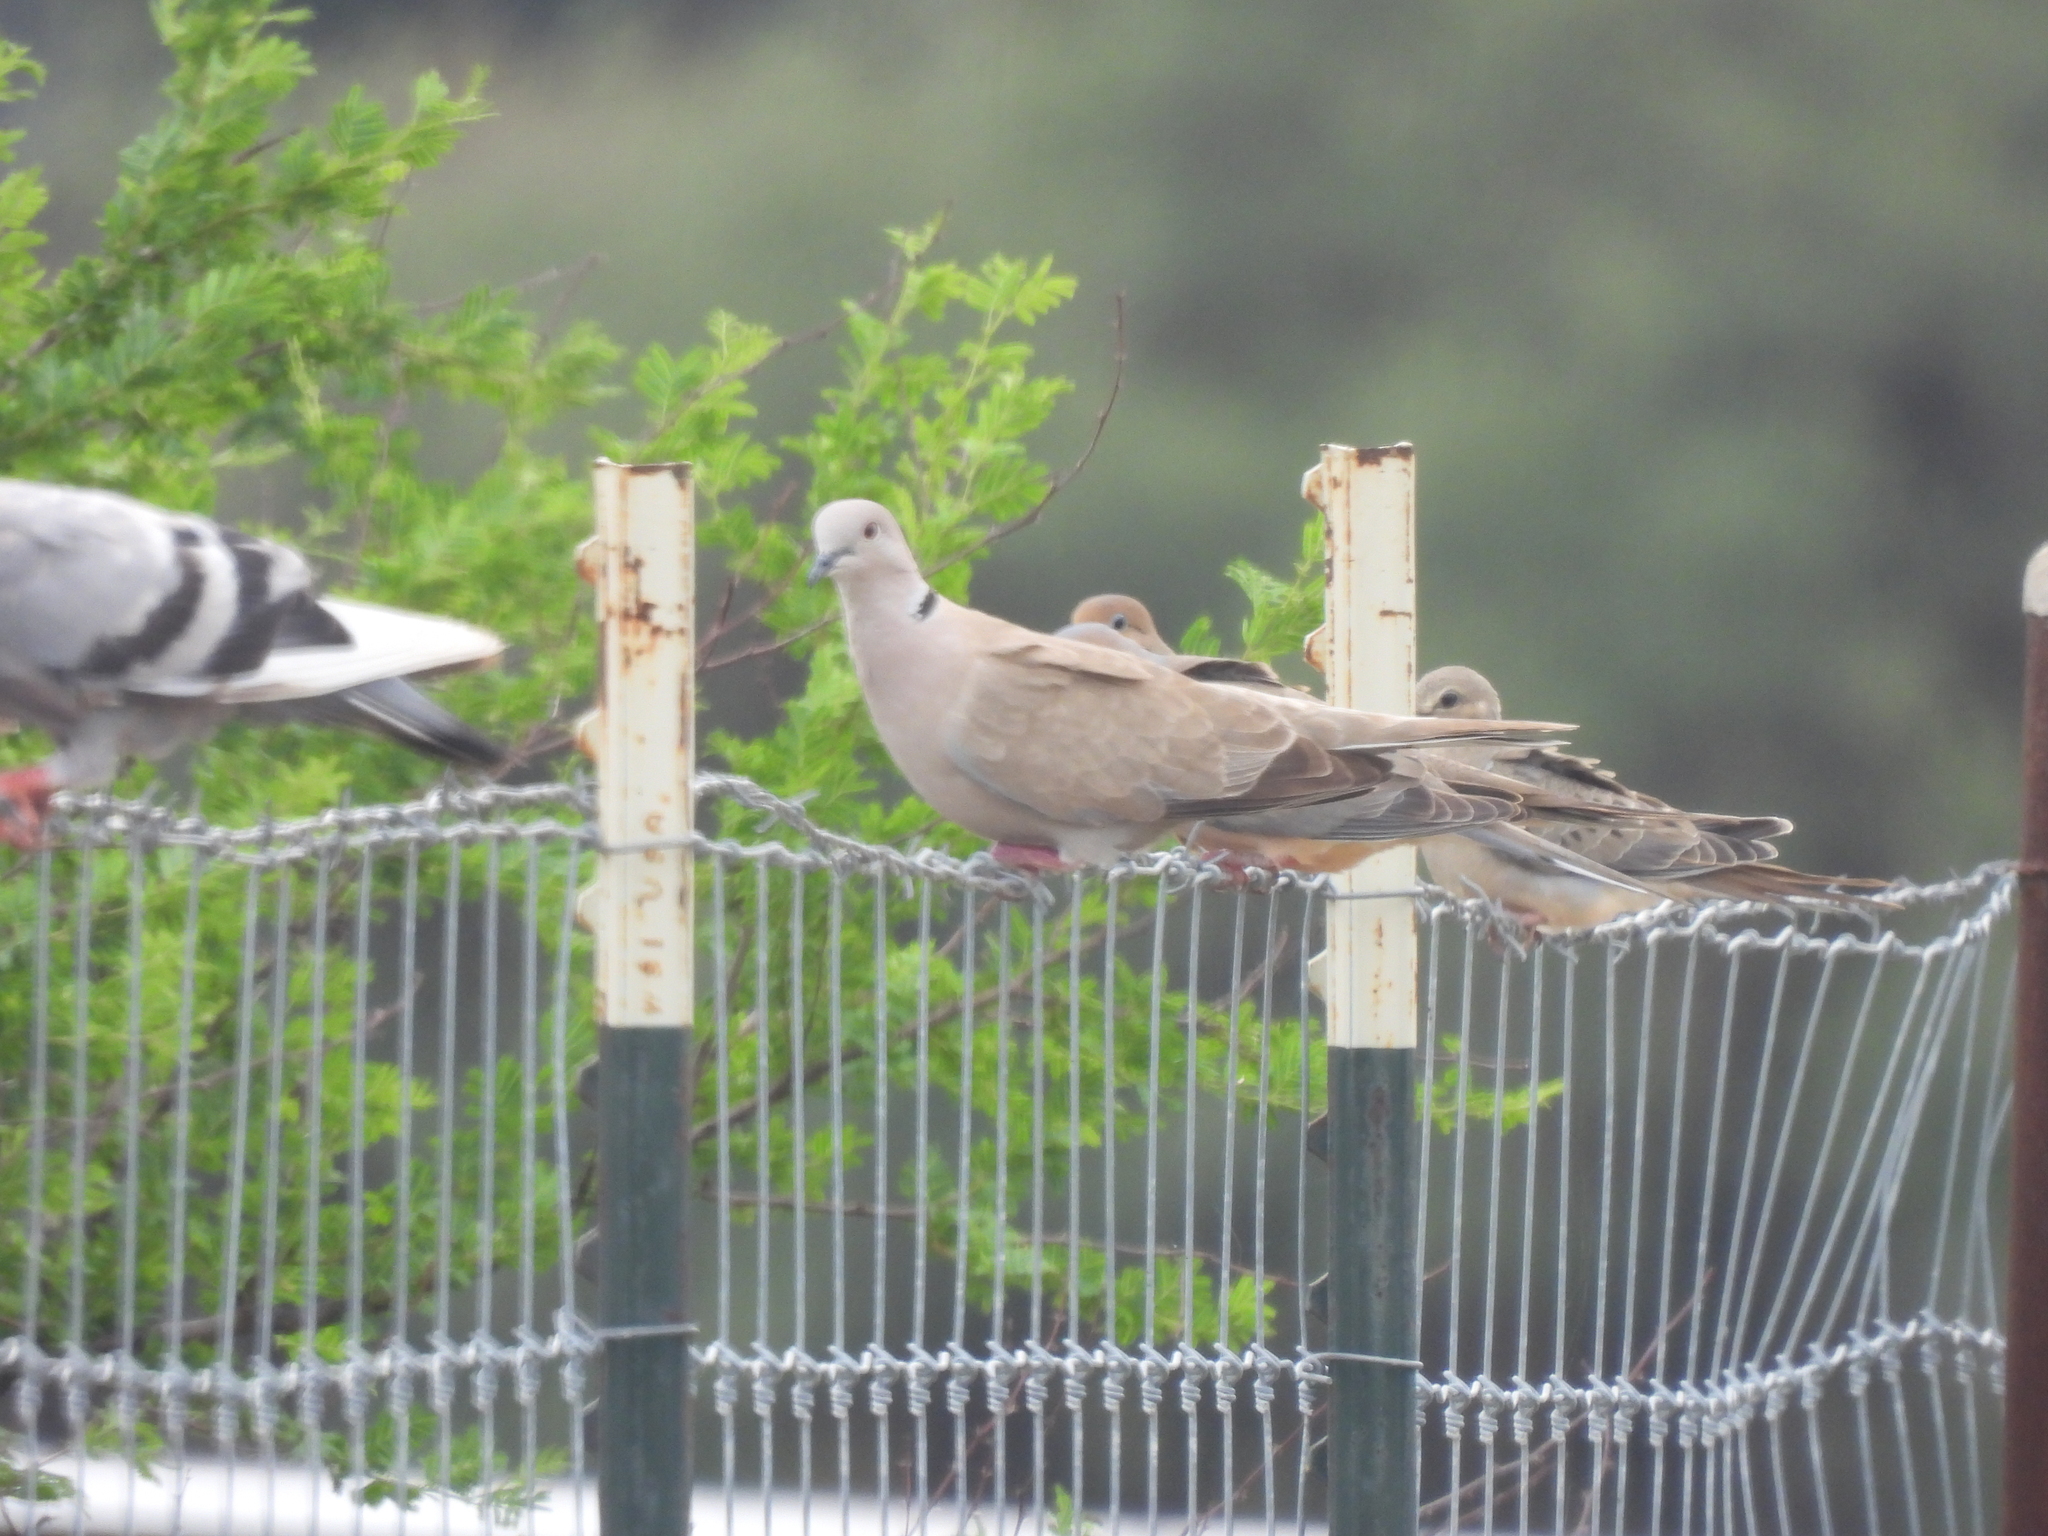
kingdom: Animalia
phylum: Chordata
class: Aves
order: Columbiformes
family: Columbidae
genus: Streptopelia
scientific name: Streptopelia decaocto
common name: Eurasian collared dove
